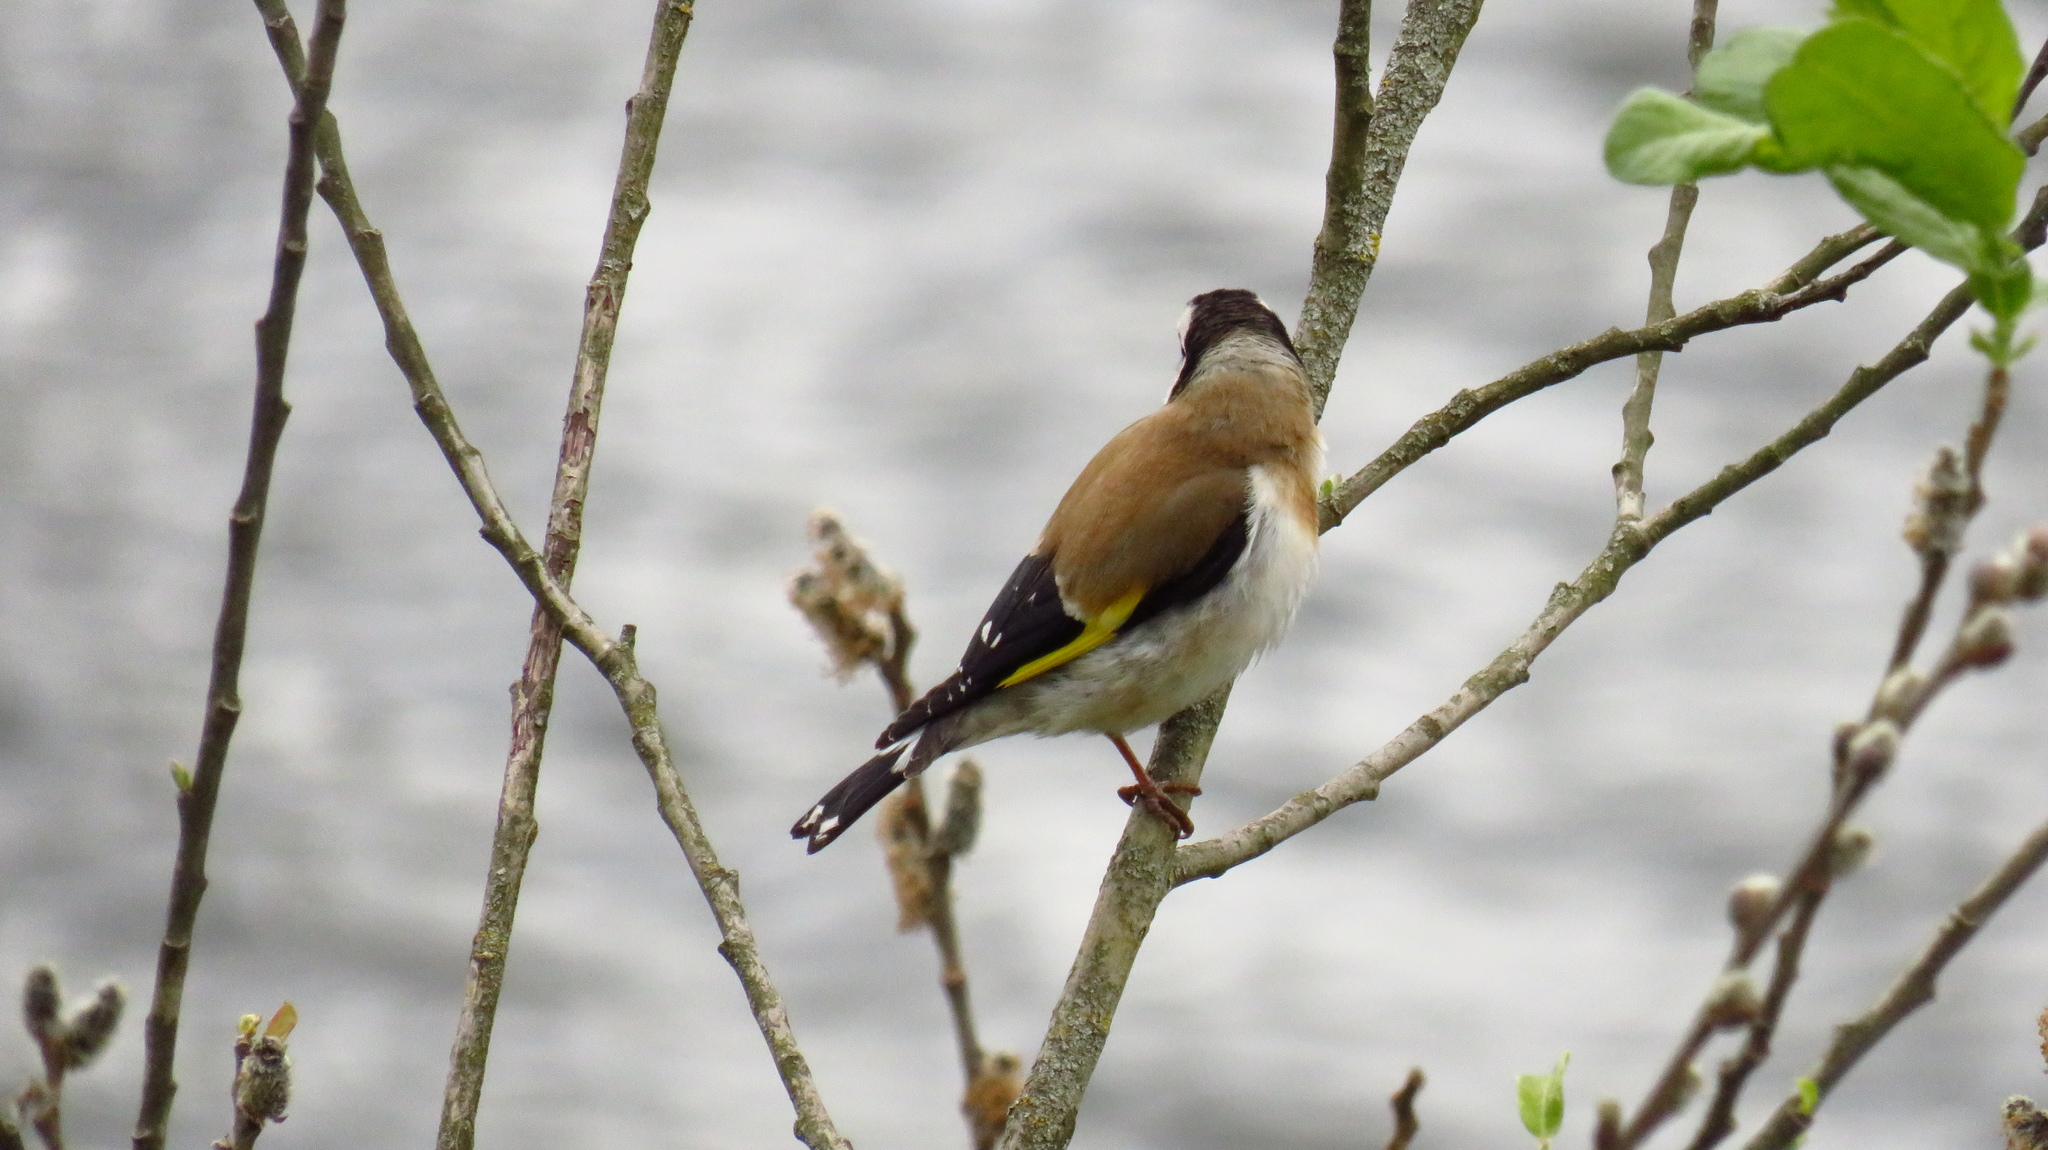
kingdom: Animalia
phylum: Chordata
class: Aves
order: Passeriformes
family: Fringillidae
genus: Carduelis
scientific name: Carduelis carduelis
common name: European goldfinch
